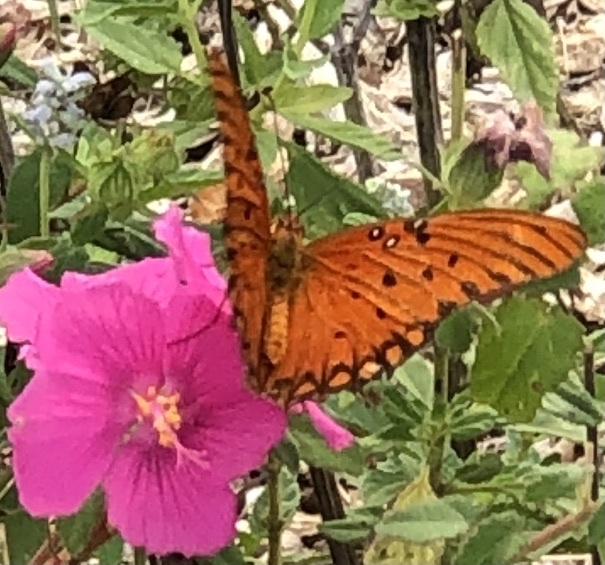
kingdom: Animalia
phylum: Arthropoda
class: Insecta
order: Lepidoptera
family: Nymphalidae
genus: Dione
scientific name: Dione vanillae
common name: Gulf fritillary
